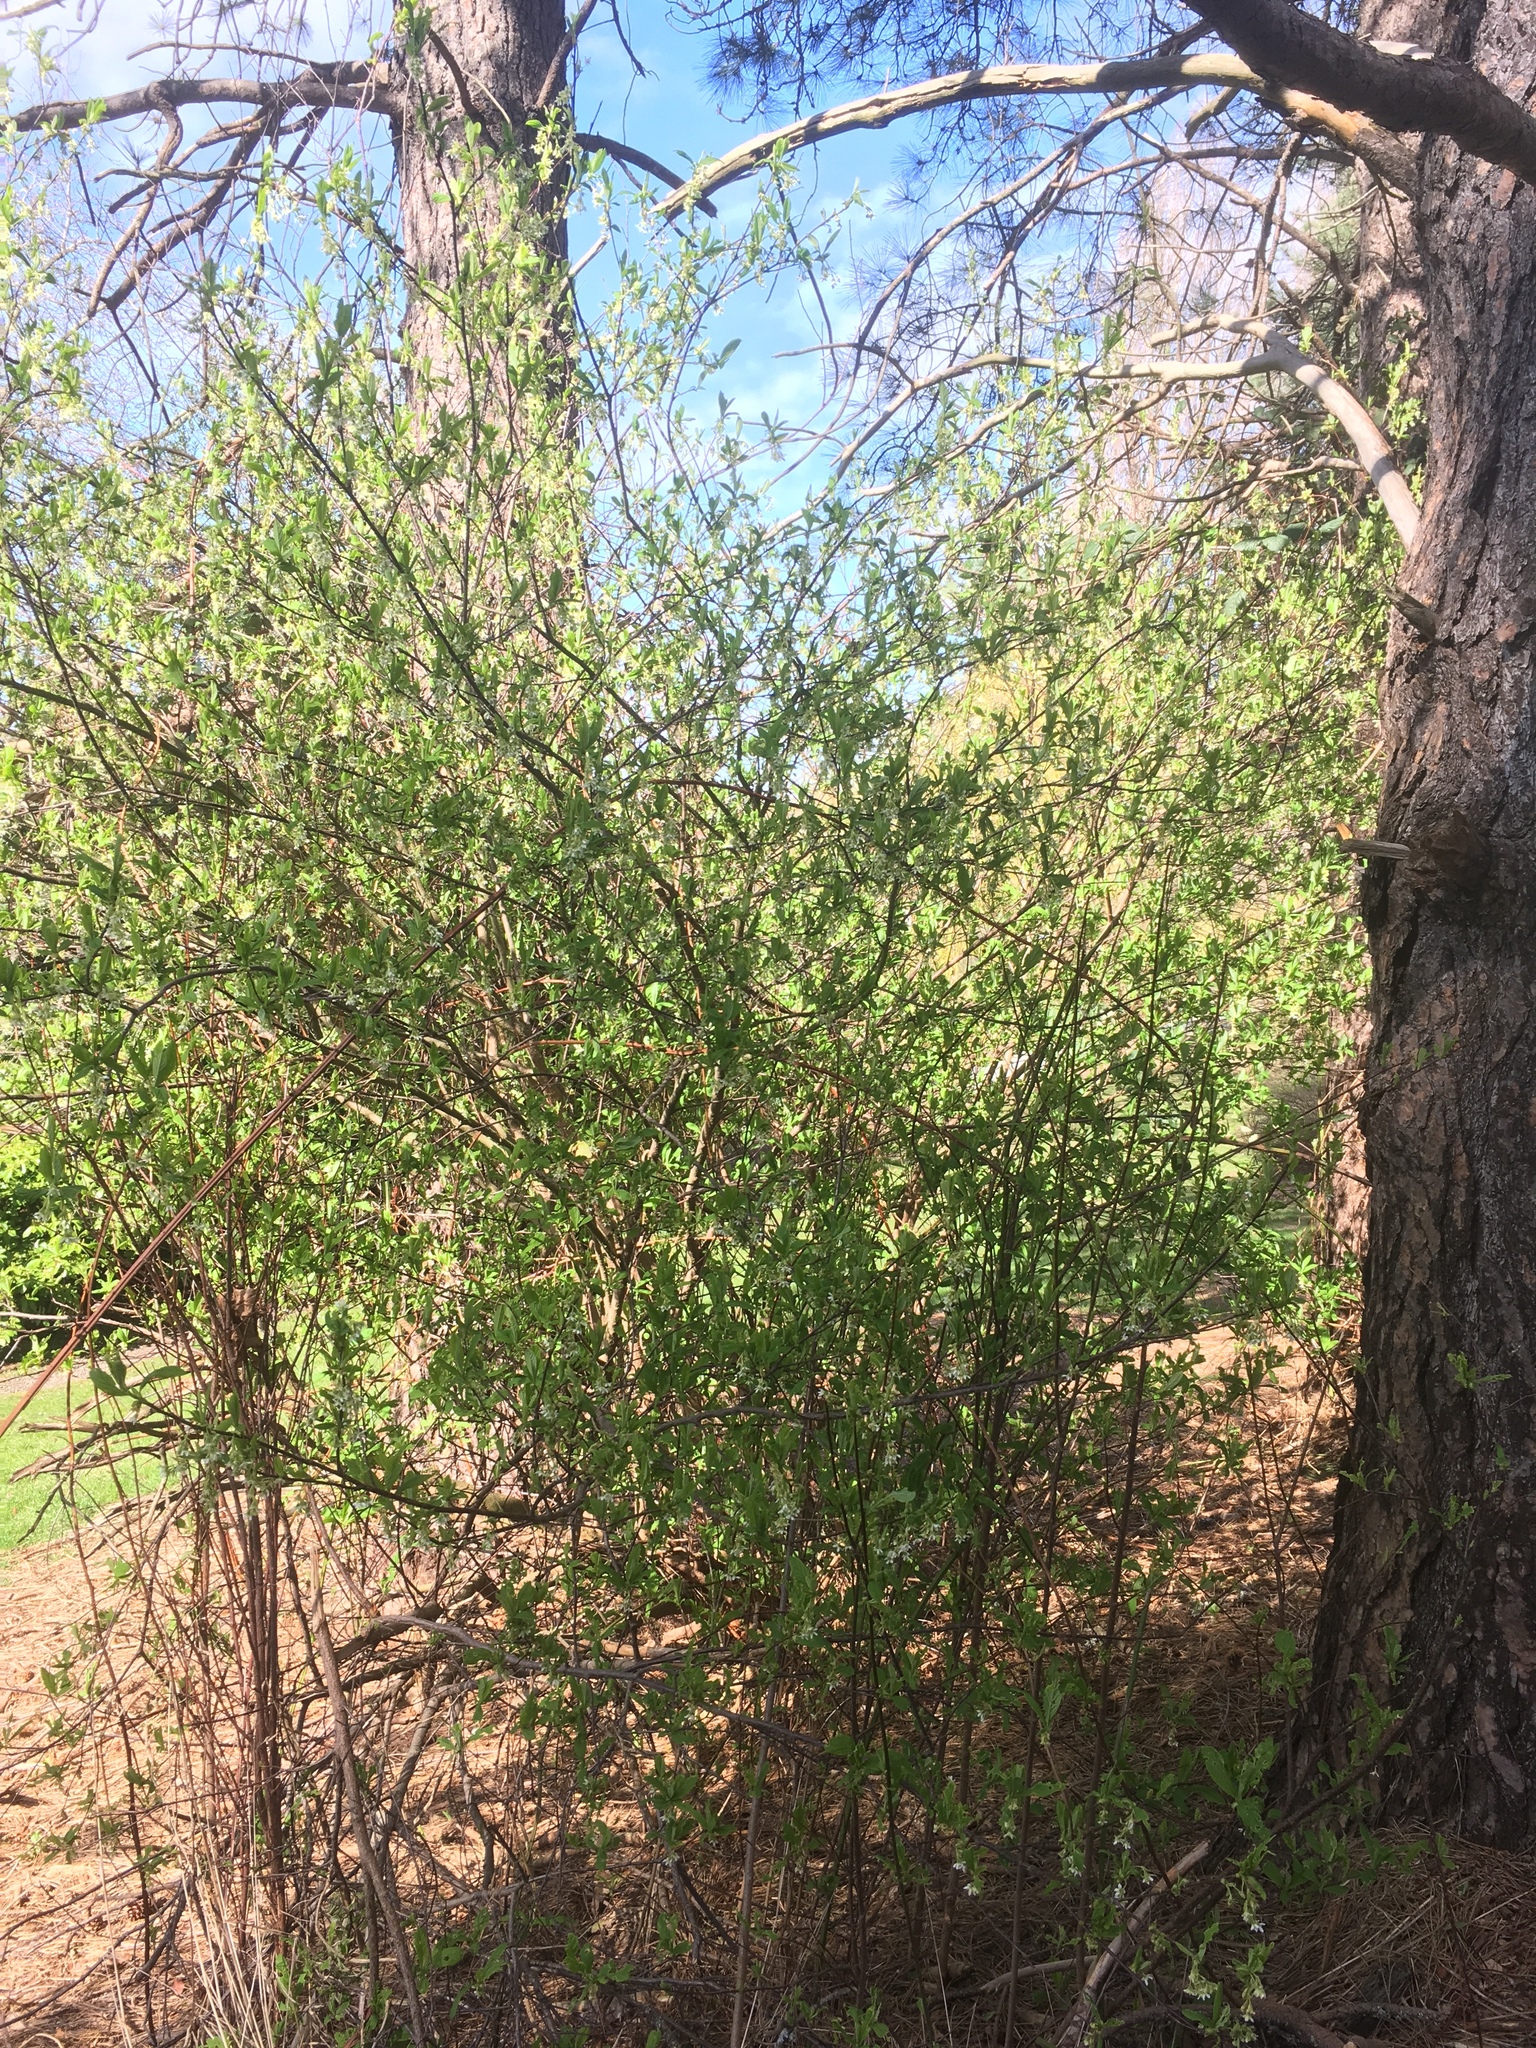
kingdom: Plantae
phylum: Tracheophyta
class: Magnoliopsida
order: Rosales
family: Rosaceae
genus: Oemleria
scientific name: Oemleria cerasiformis
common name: Osoberry
